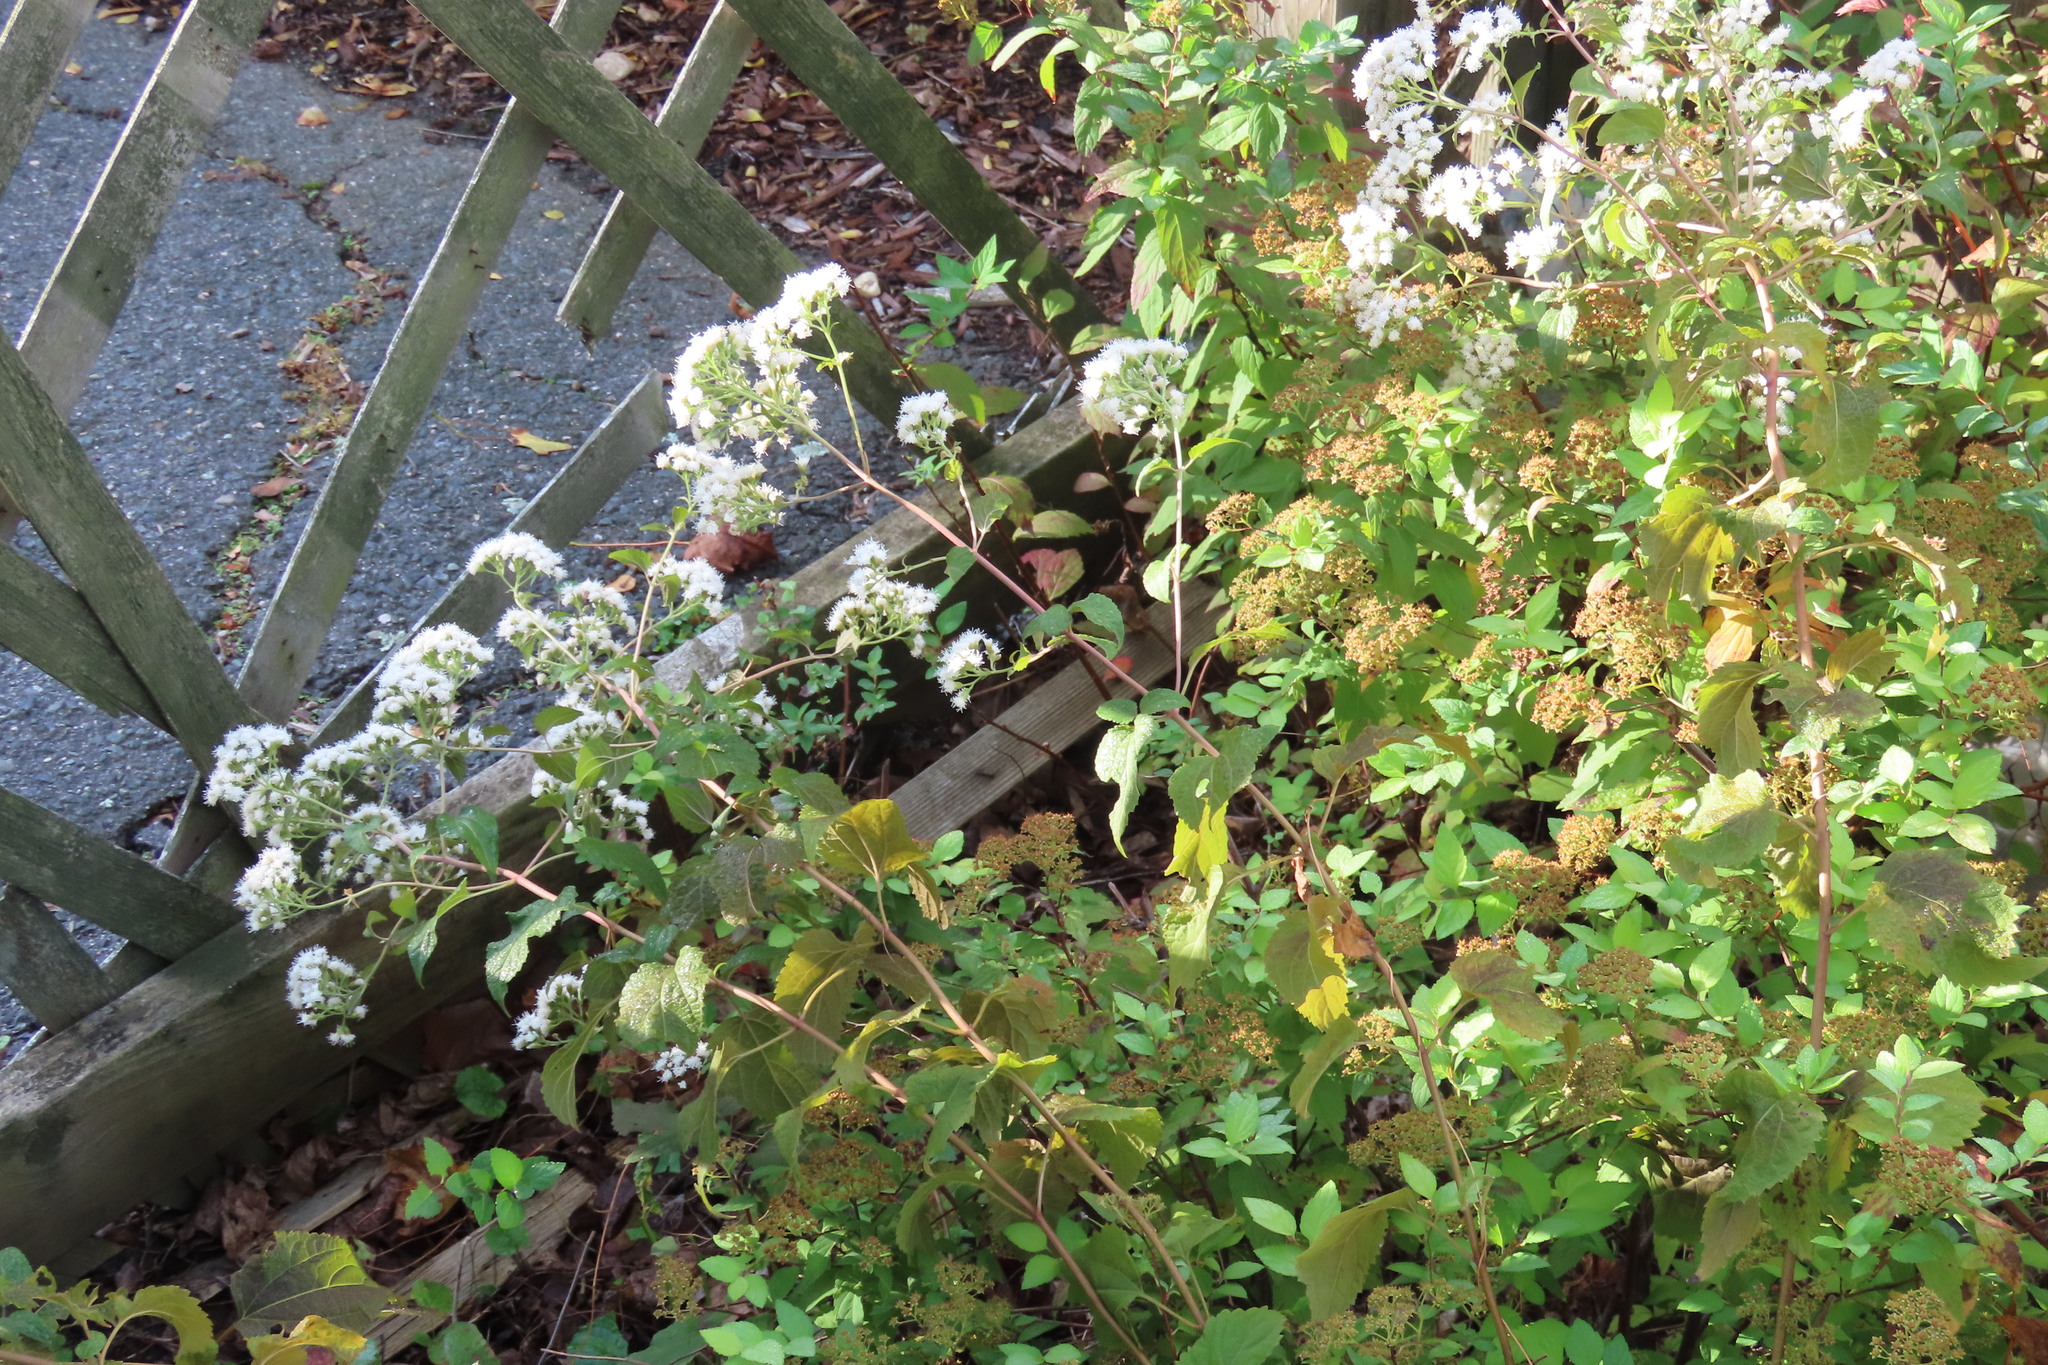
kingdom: Plantae
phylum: Tracheophyta
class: Magnoliopsida
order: Asterales
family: Asteraceae
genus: Ageratina
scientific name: Ageratina altissima
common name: White snakeroot
